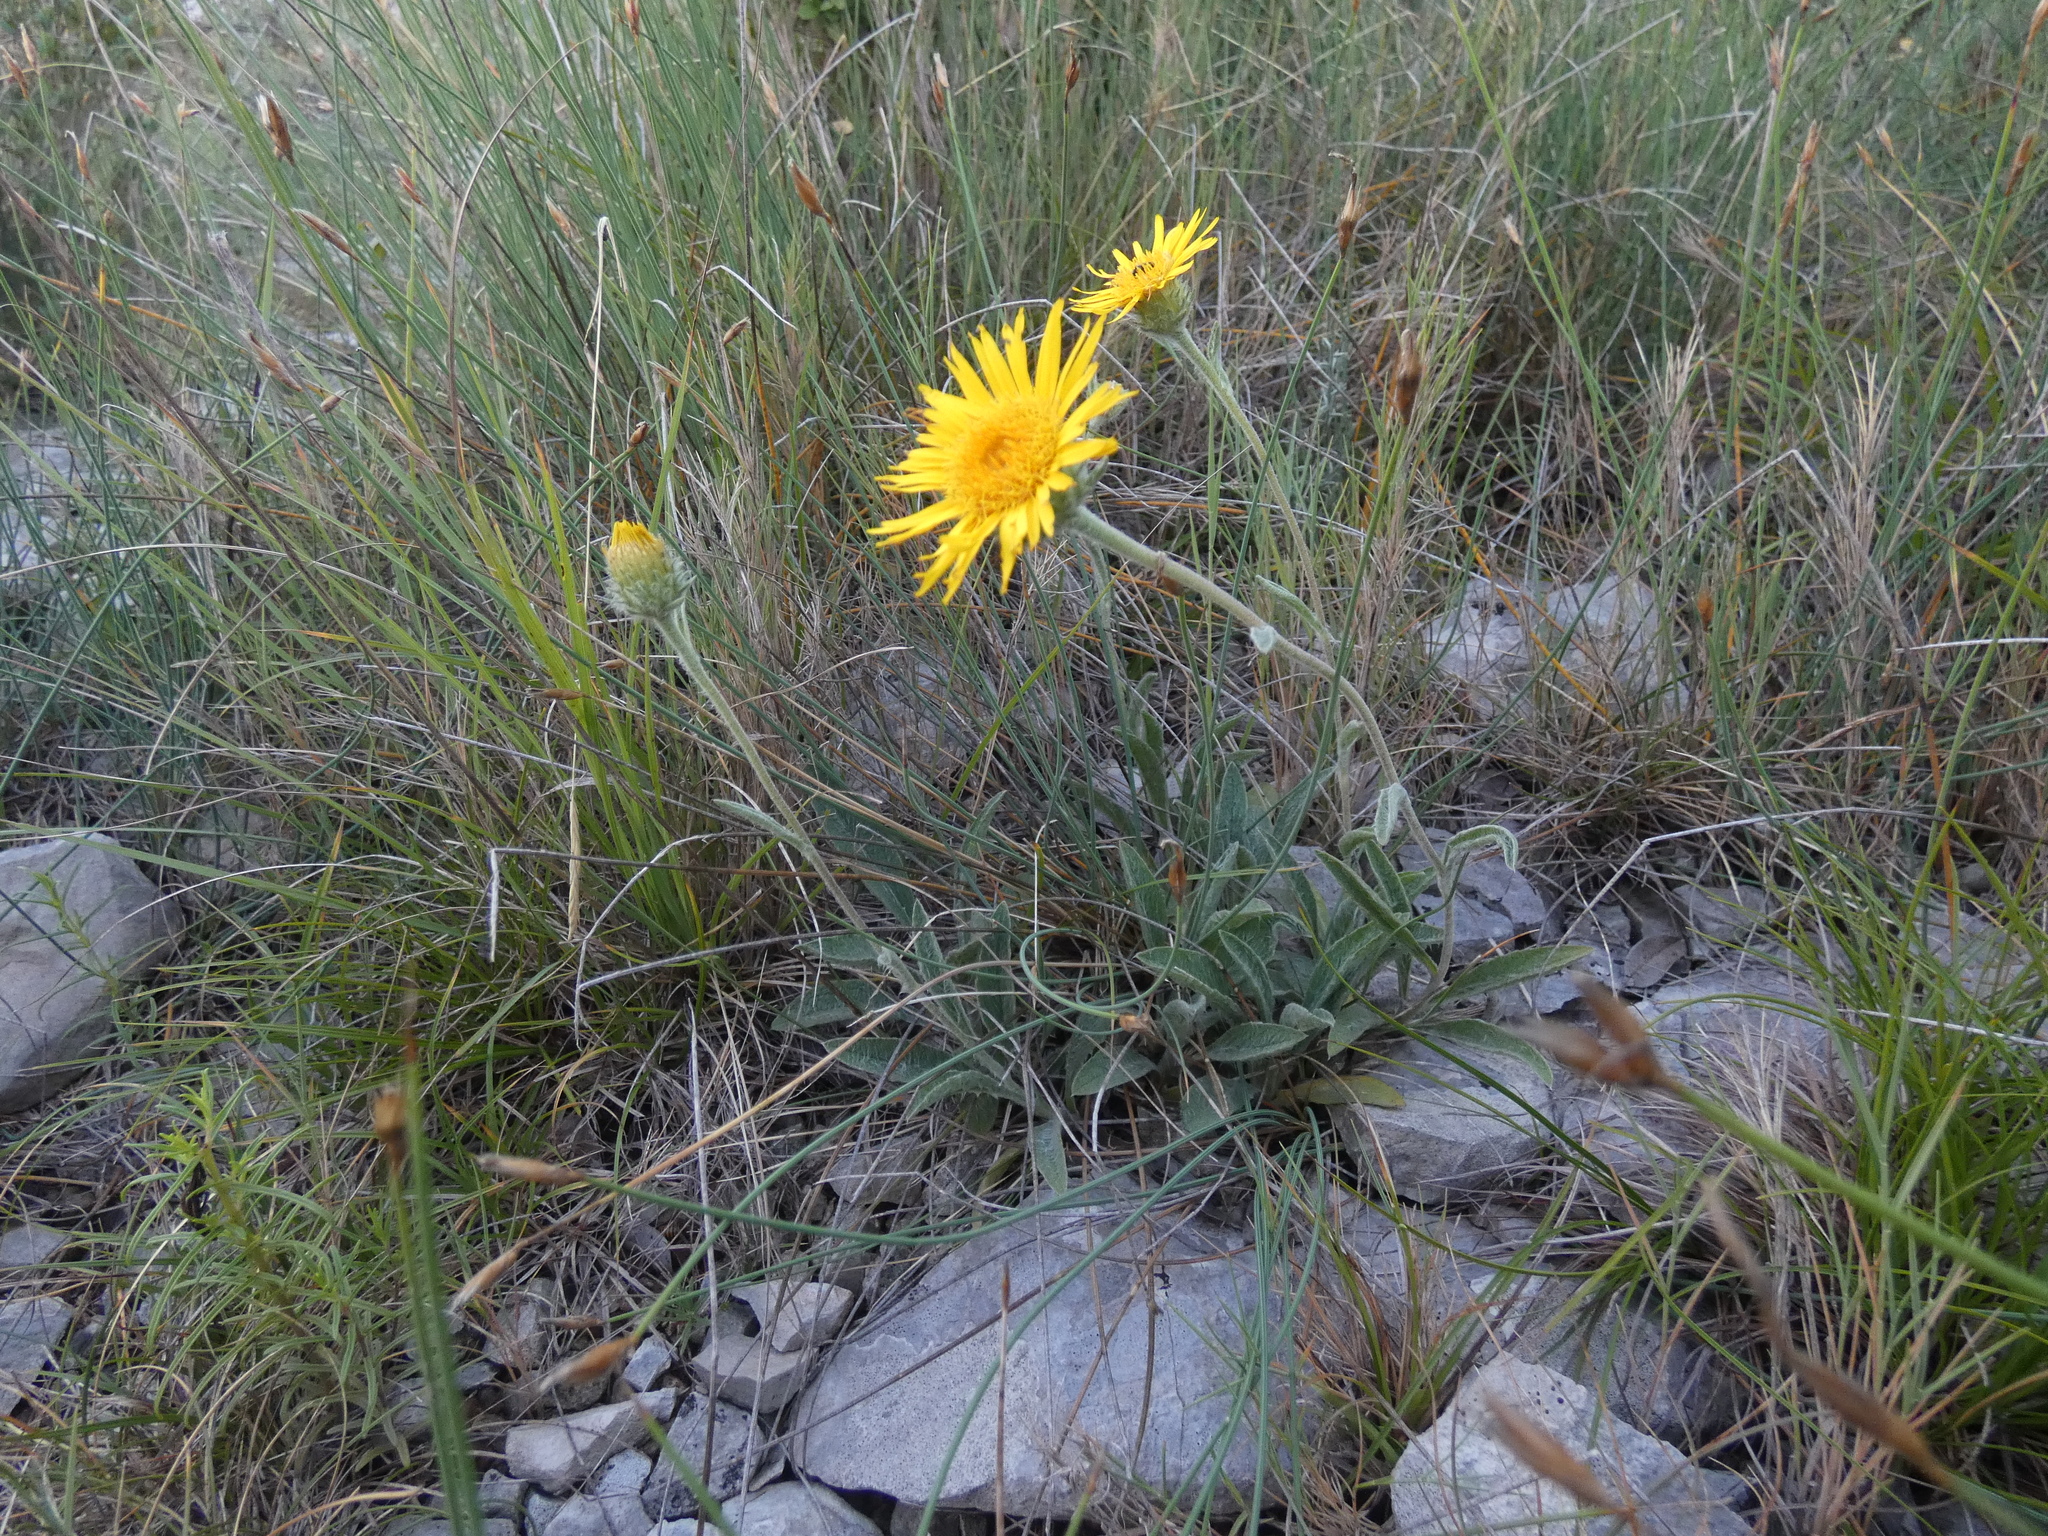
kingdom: Plantae
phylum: Tracheophyta
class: Magnoliopsida
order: Asterales
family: Asteraceae
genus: Pentanema
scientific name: Pentanema montanum
